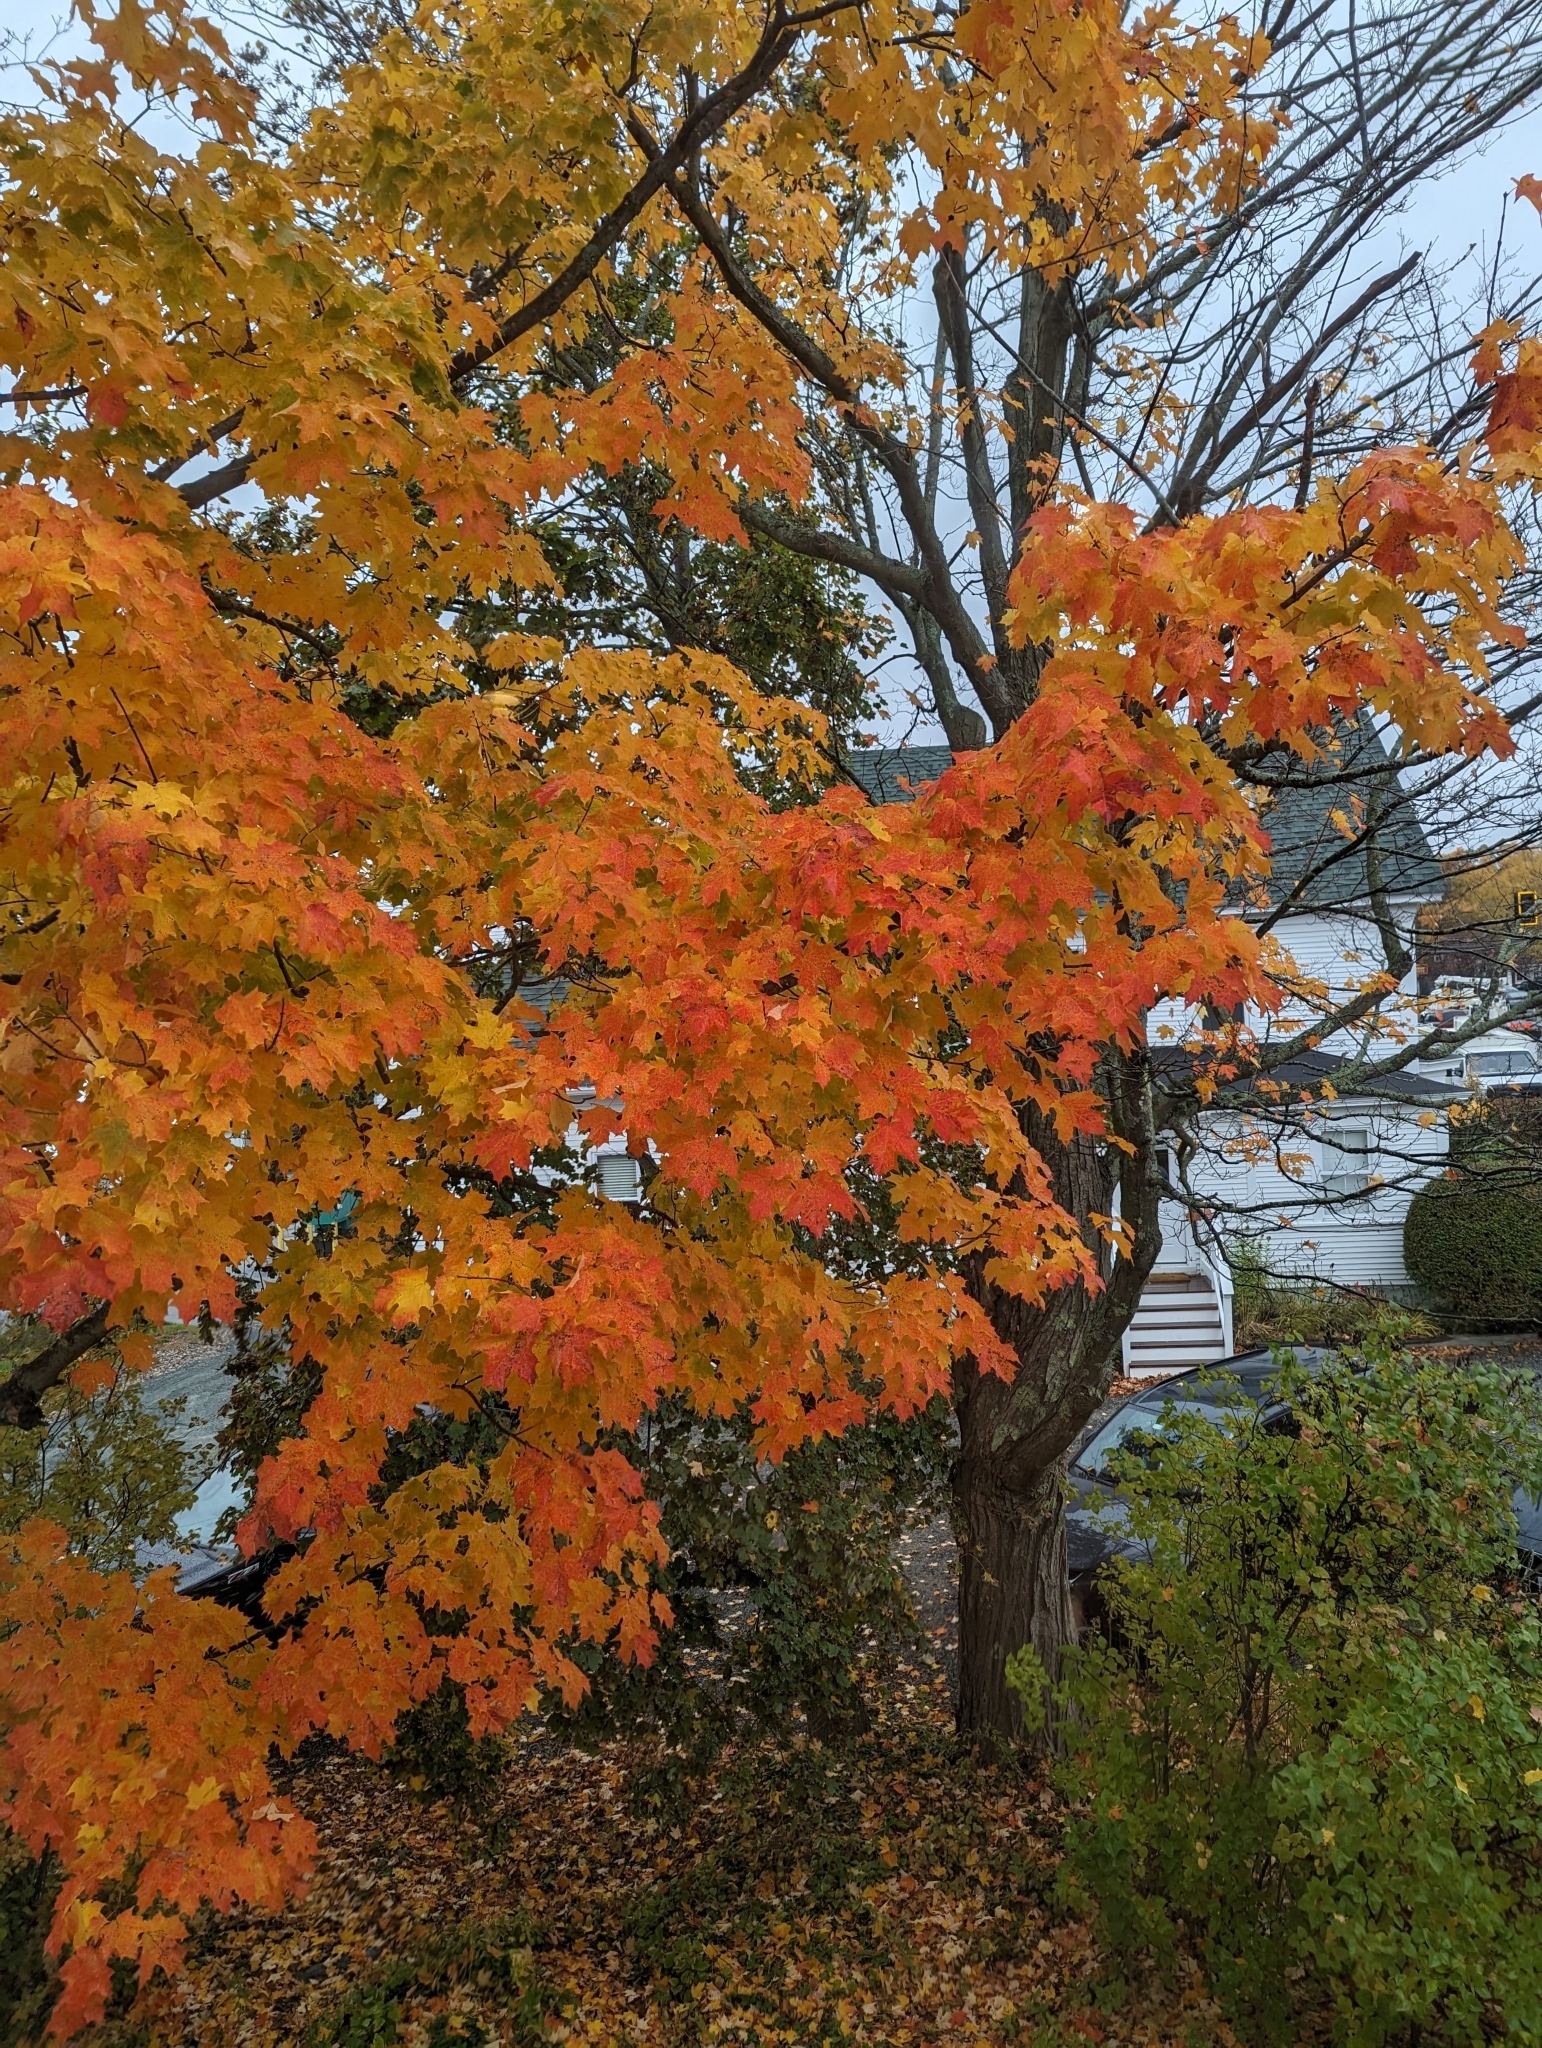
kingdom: Plantae
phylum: Tracheophyta
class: Magnoliopsida
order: Sapindales
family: Sapindaceae
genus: Acer
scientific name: Acer saccharum
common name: Sugar maple
